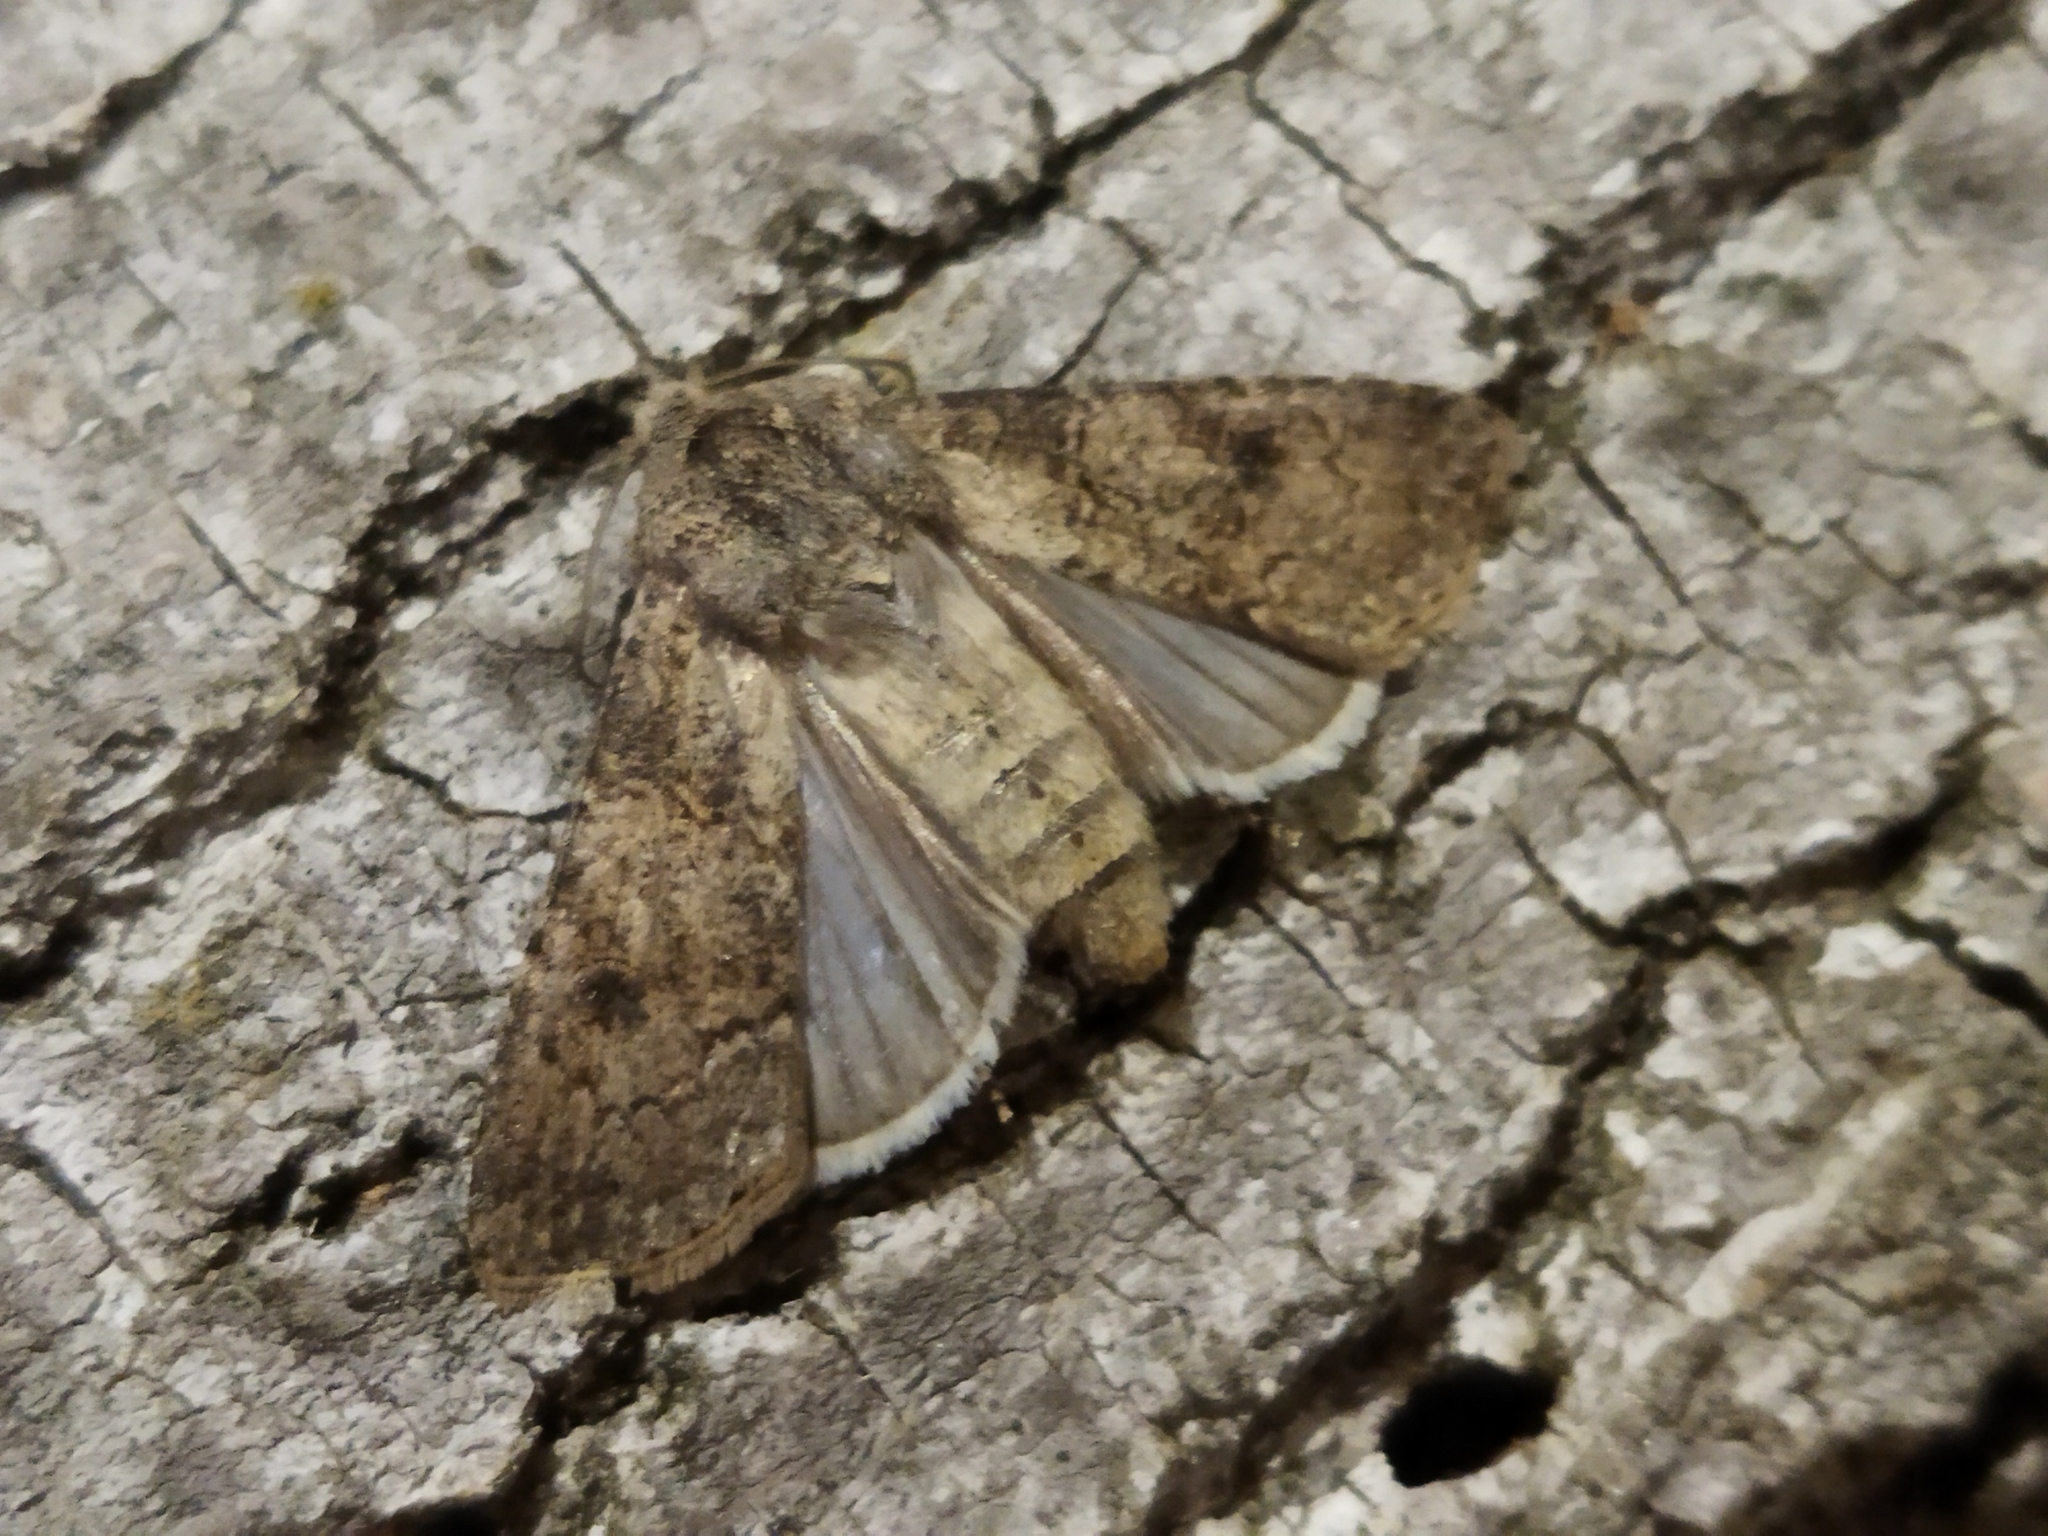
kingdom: Animalia
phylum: Arthropoda
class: Insecta
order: Lepidoptera
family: Noctuidae
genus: Agrotis
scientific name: Agrotis segetum
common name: Turnip moth
